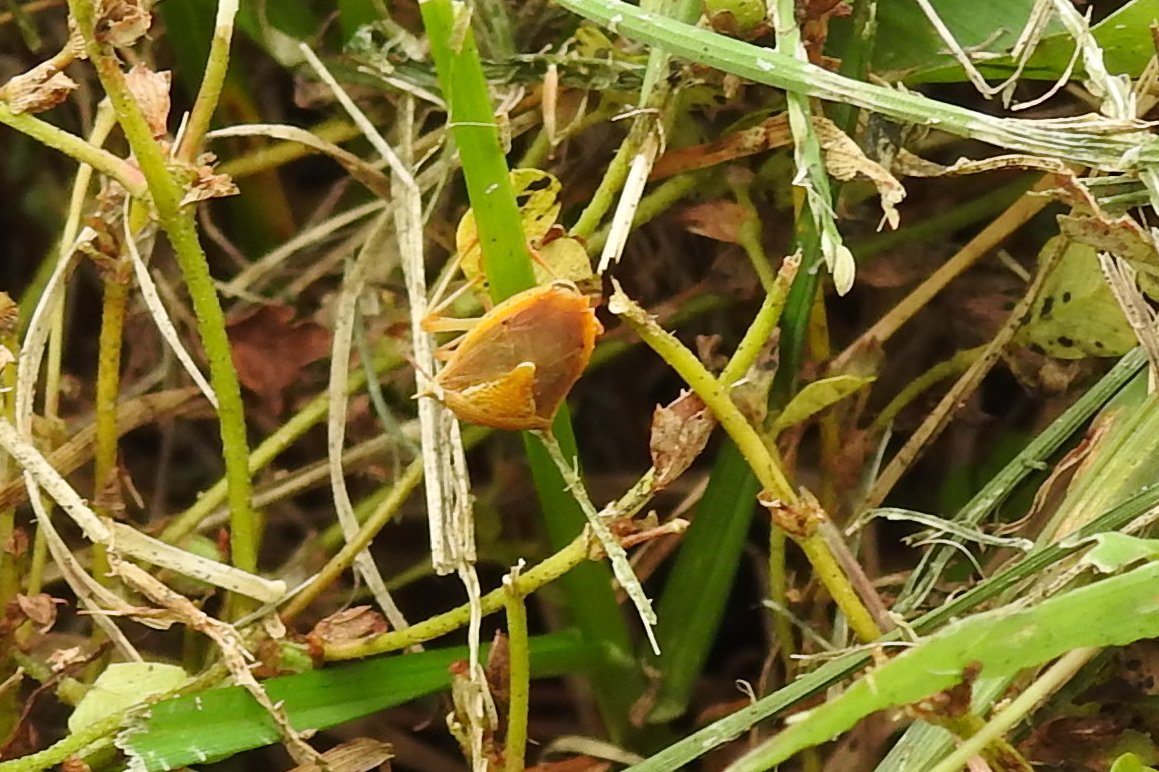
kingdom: Animalia
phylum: Arthropoda
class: Insecta
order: Hemiptera
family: Pentatomidae
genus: Oebalus
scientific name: Oebalus pugnax
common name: Rice stink bug
